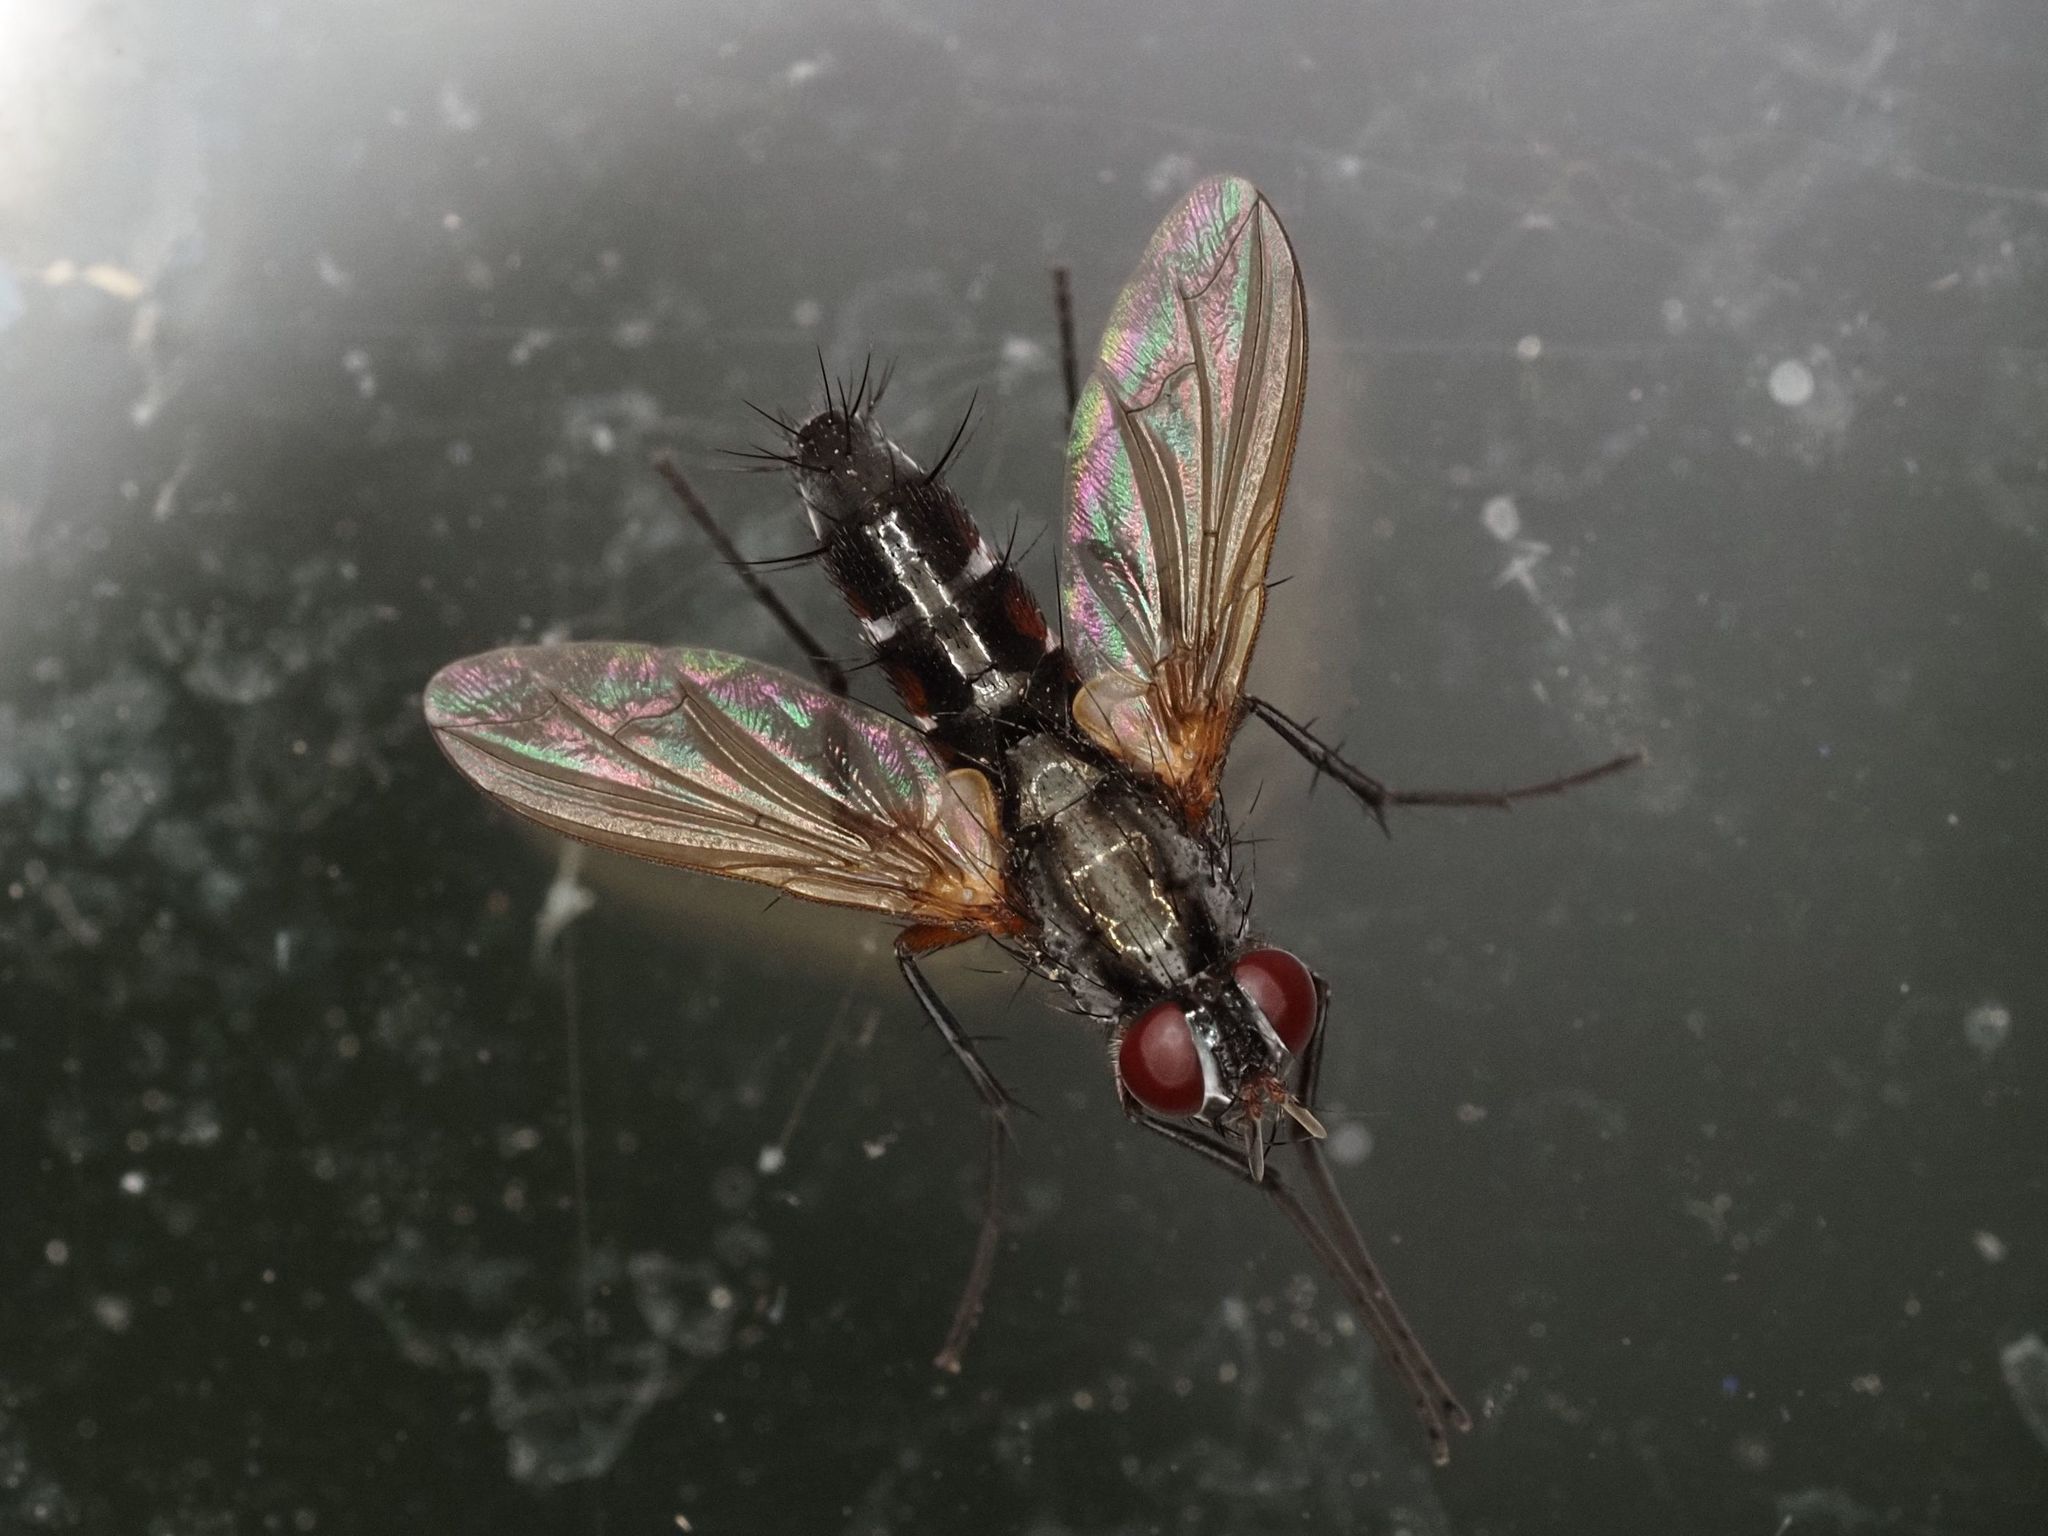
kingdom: Animalia
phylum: Arthropoda
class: Insecta
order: Diptera
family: Tachinidae
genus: Mintho
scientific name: Mintho rufiventris
